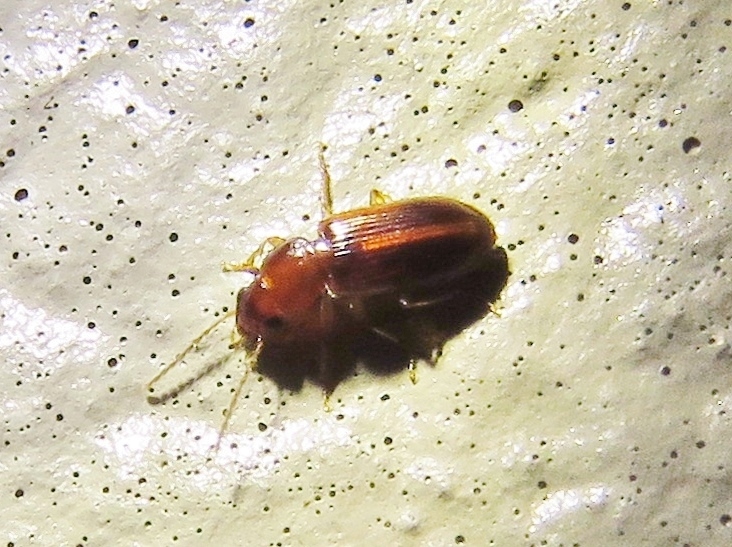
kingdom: Animalia
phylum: Arthropoda
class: Insecta
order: Coleoptera
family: Carabidae
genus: Acupalpus
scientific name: Acupalpus indistinctus
